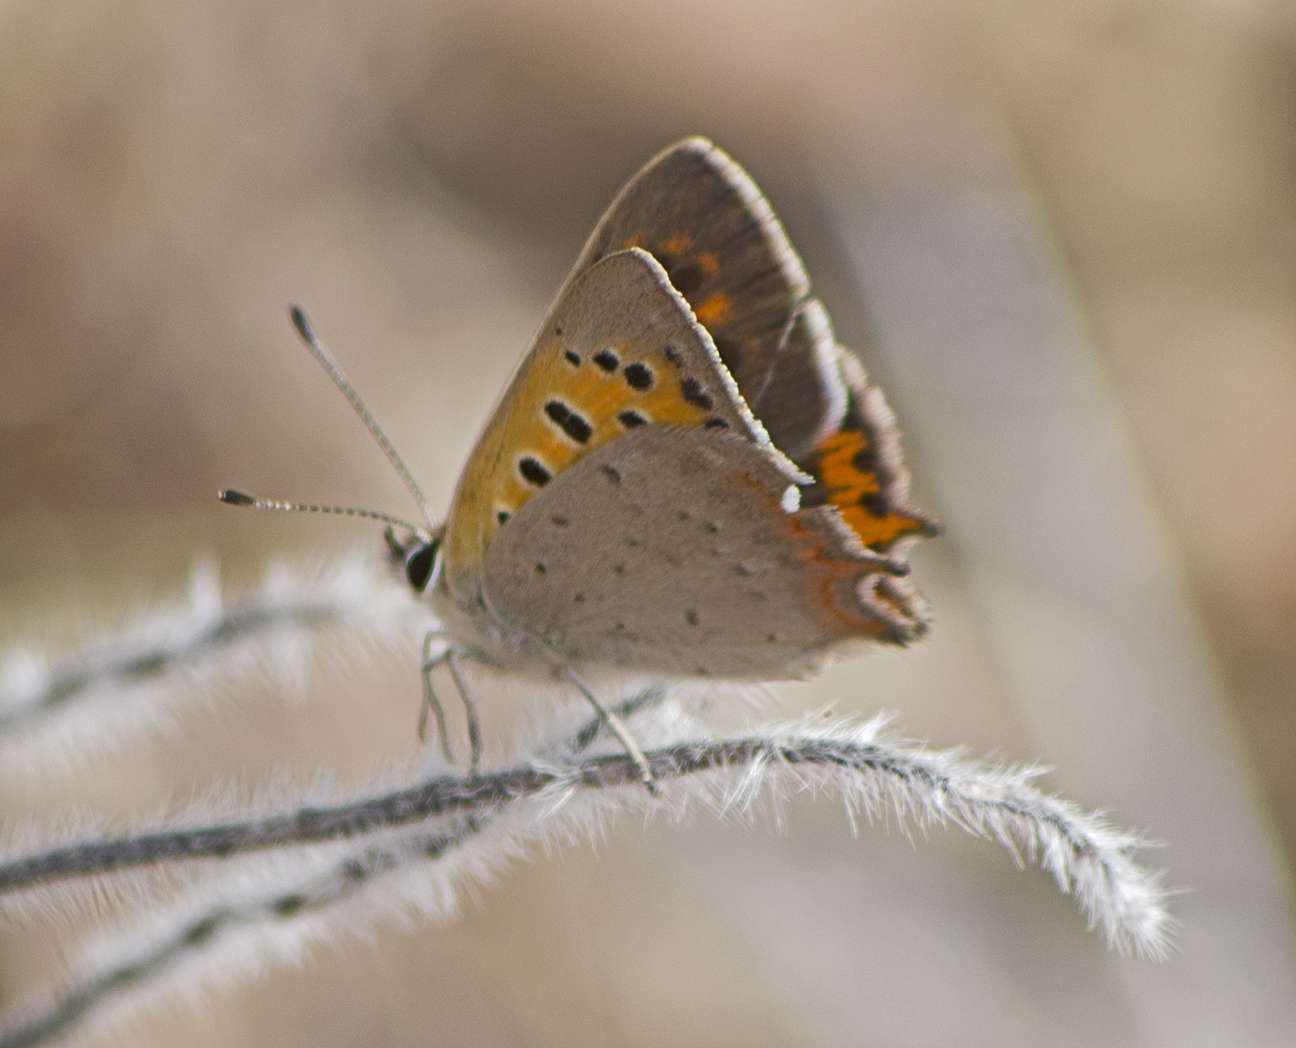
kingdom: Animalia
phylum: Arthropoda
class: Insecta
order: Lepidoptera
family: Lycaenidae
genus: Lycaena
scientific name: Lycaena phlaeas
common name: Small copper
